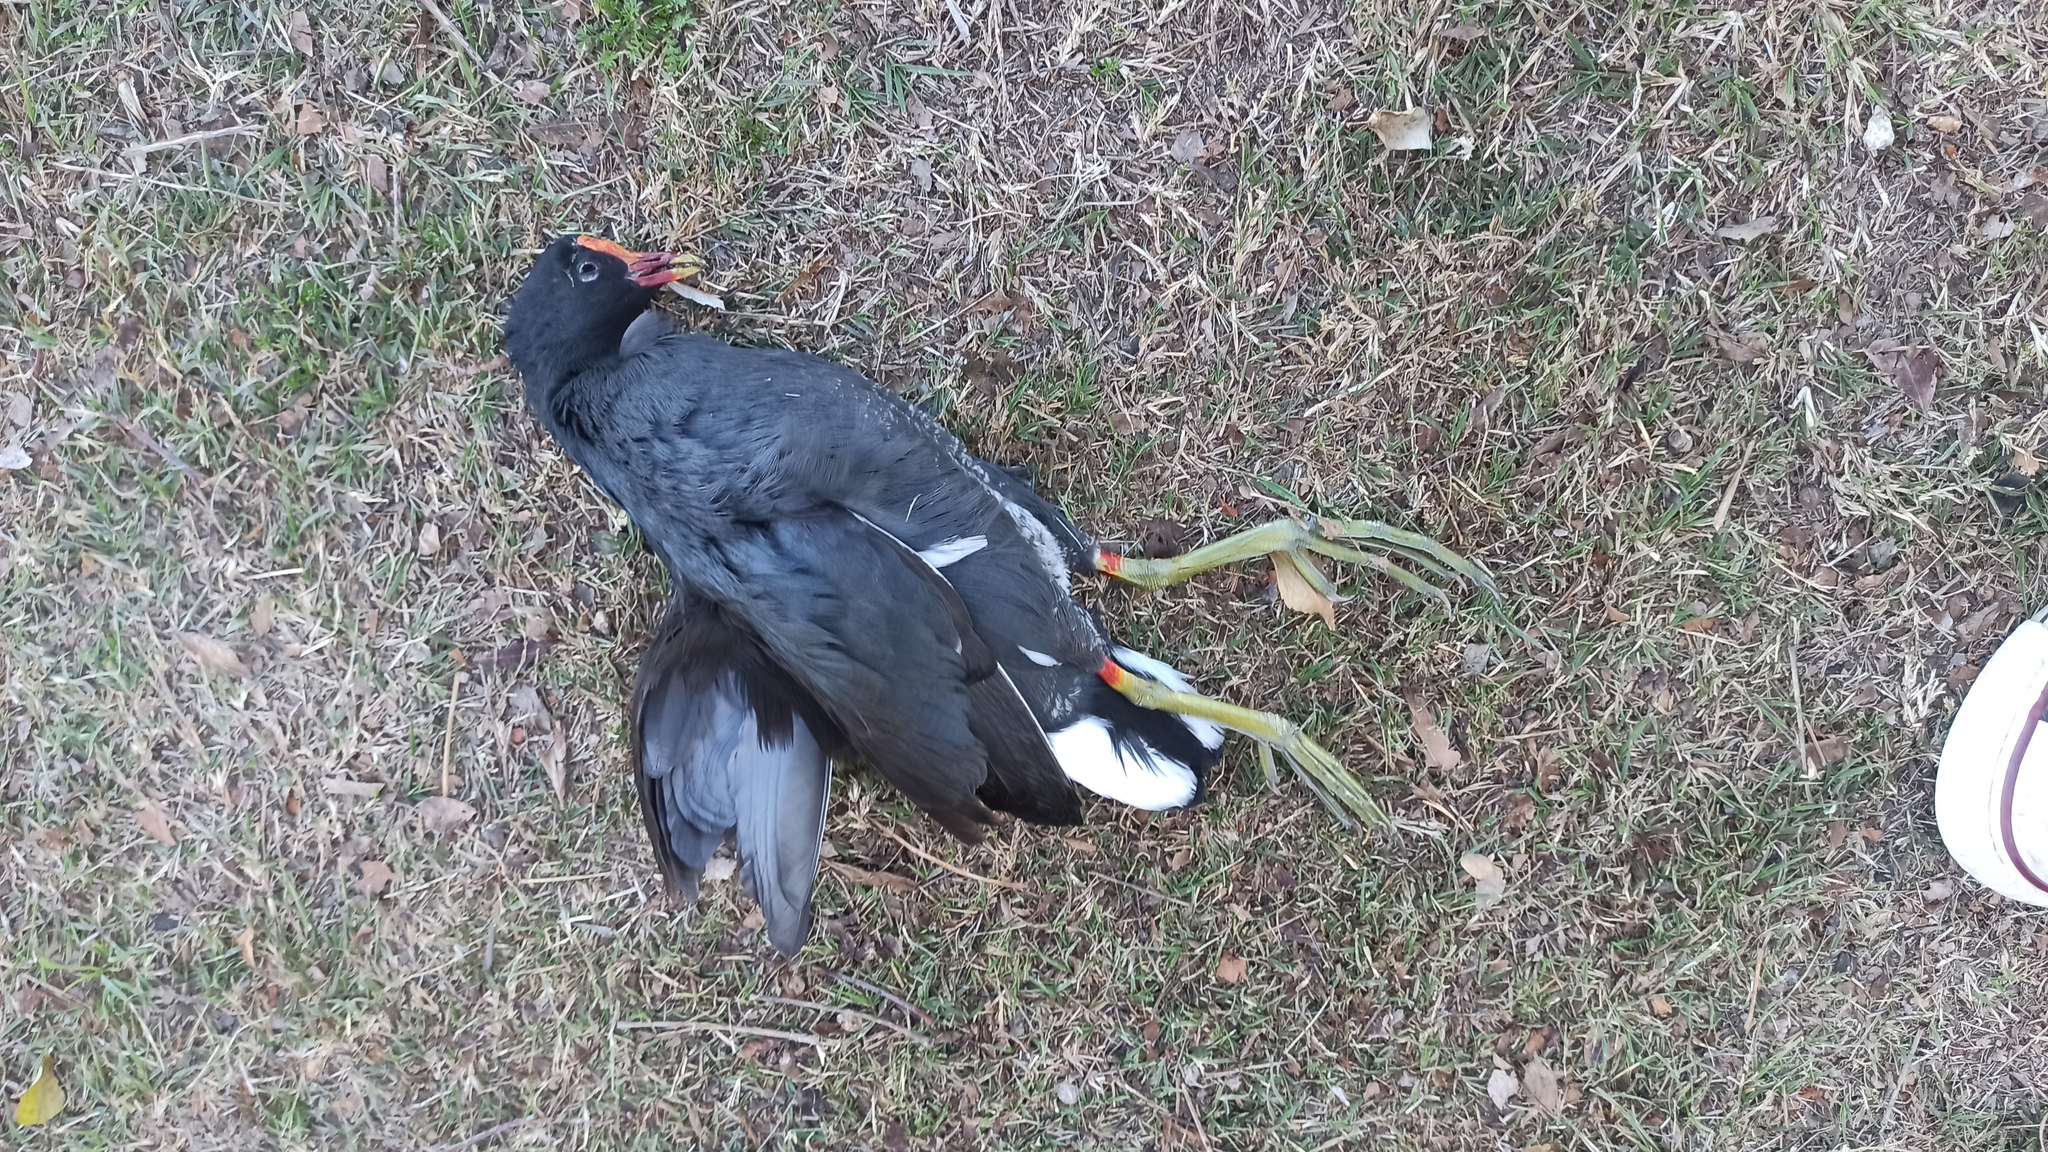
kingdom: Animalia
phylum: Chordata
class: Aves
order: Gruiformes
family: Rallidae
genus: Gallinula
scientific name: Gallinula chloropus
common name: Common moorhen
